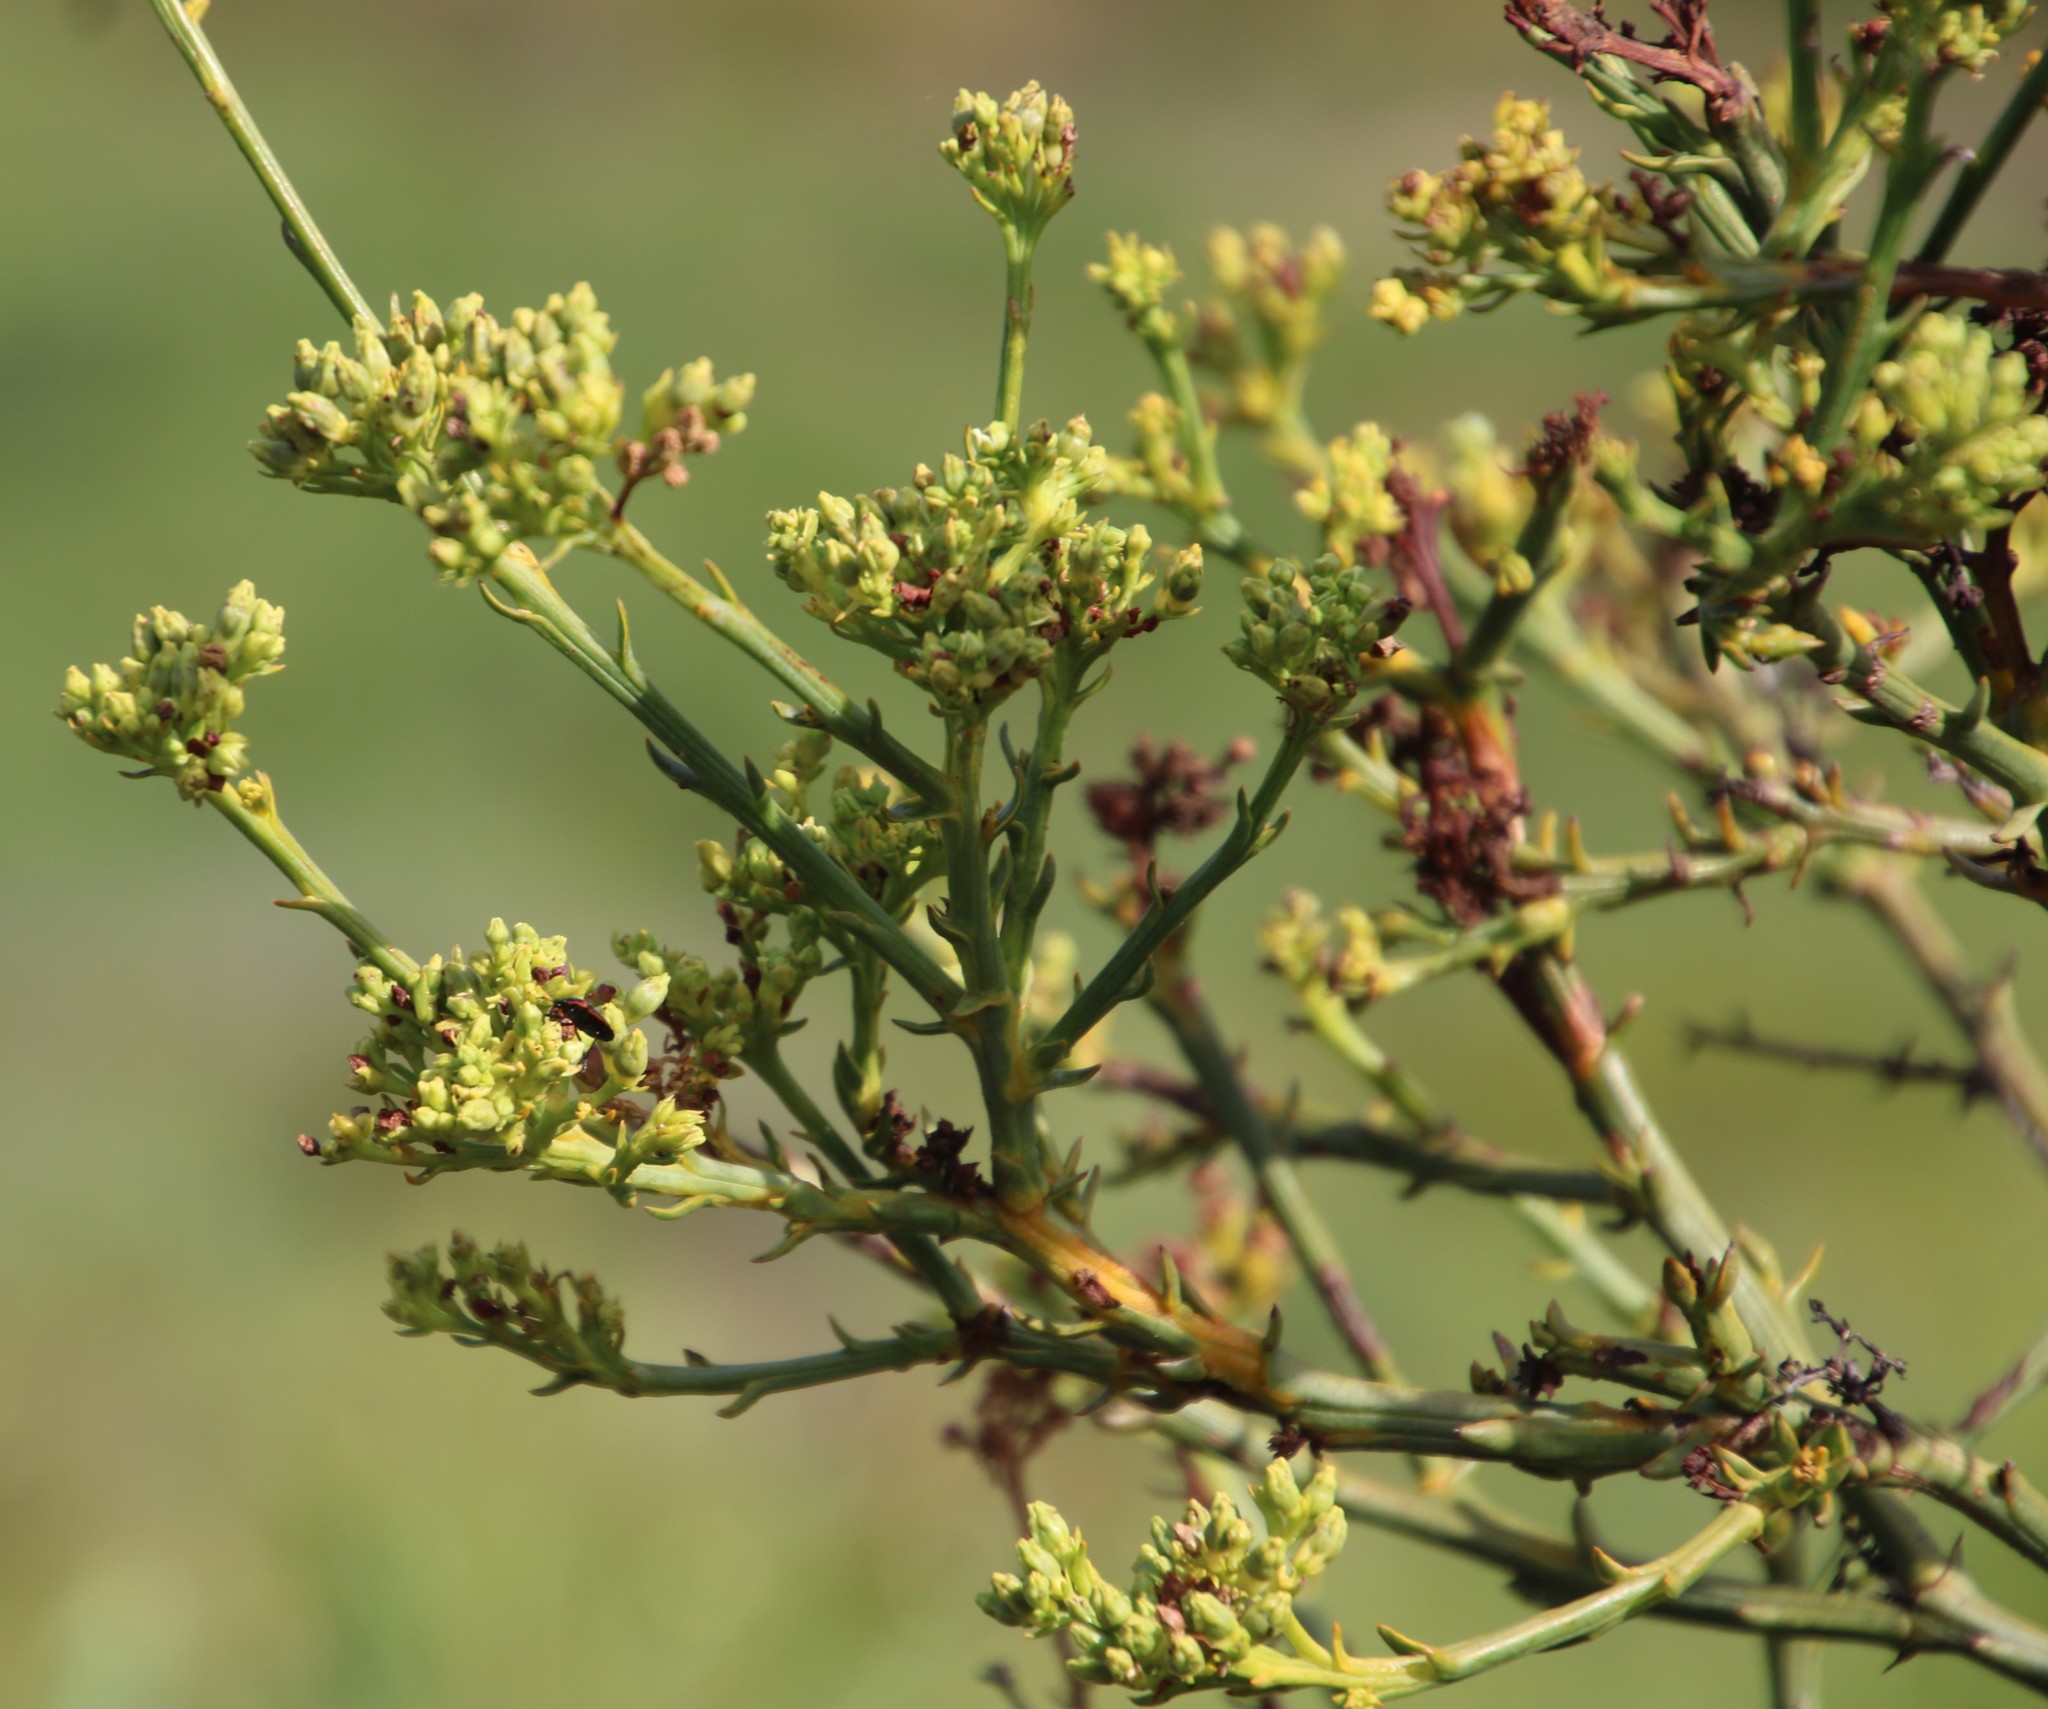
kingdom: Plantae
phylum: Tracheophyta
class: Magnoliopsida
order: Santalales
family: Thesiaceae
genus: Thesium
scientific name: Thesium strictum
